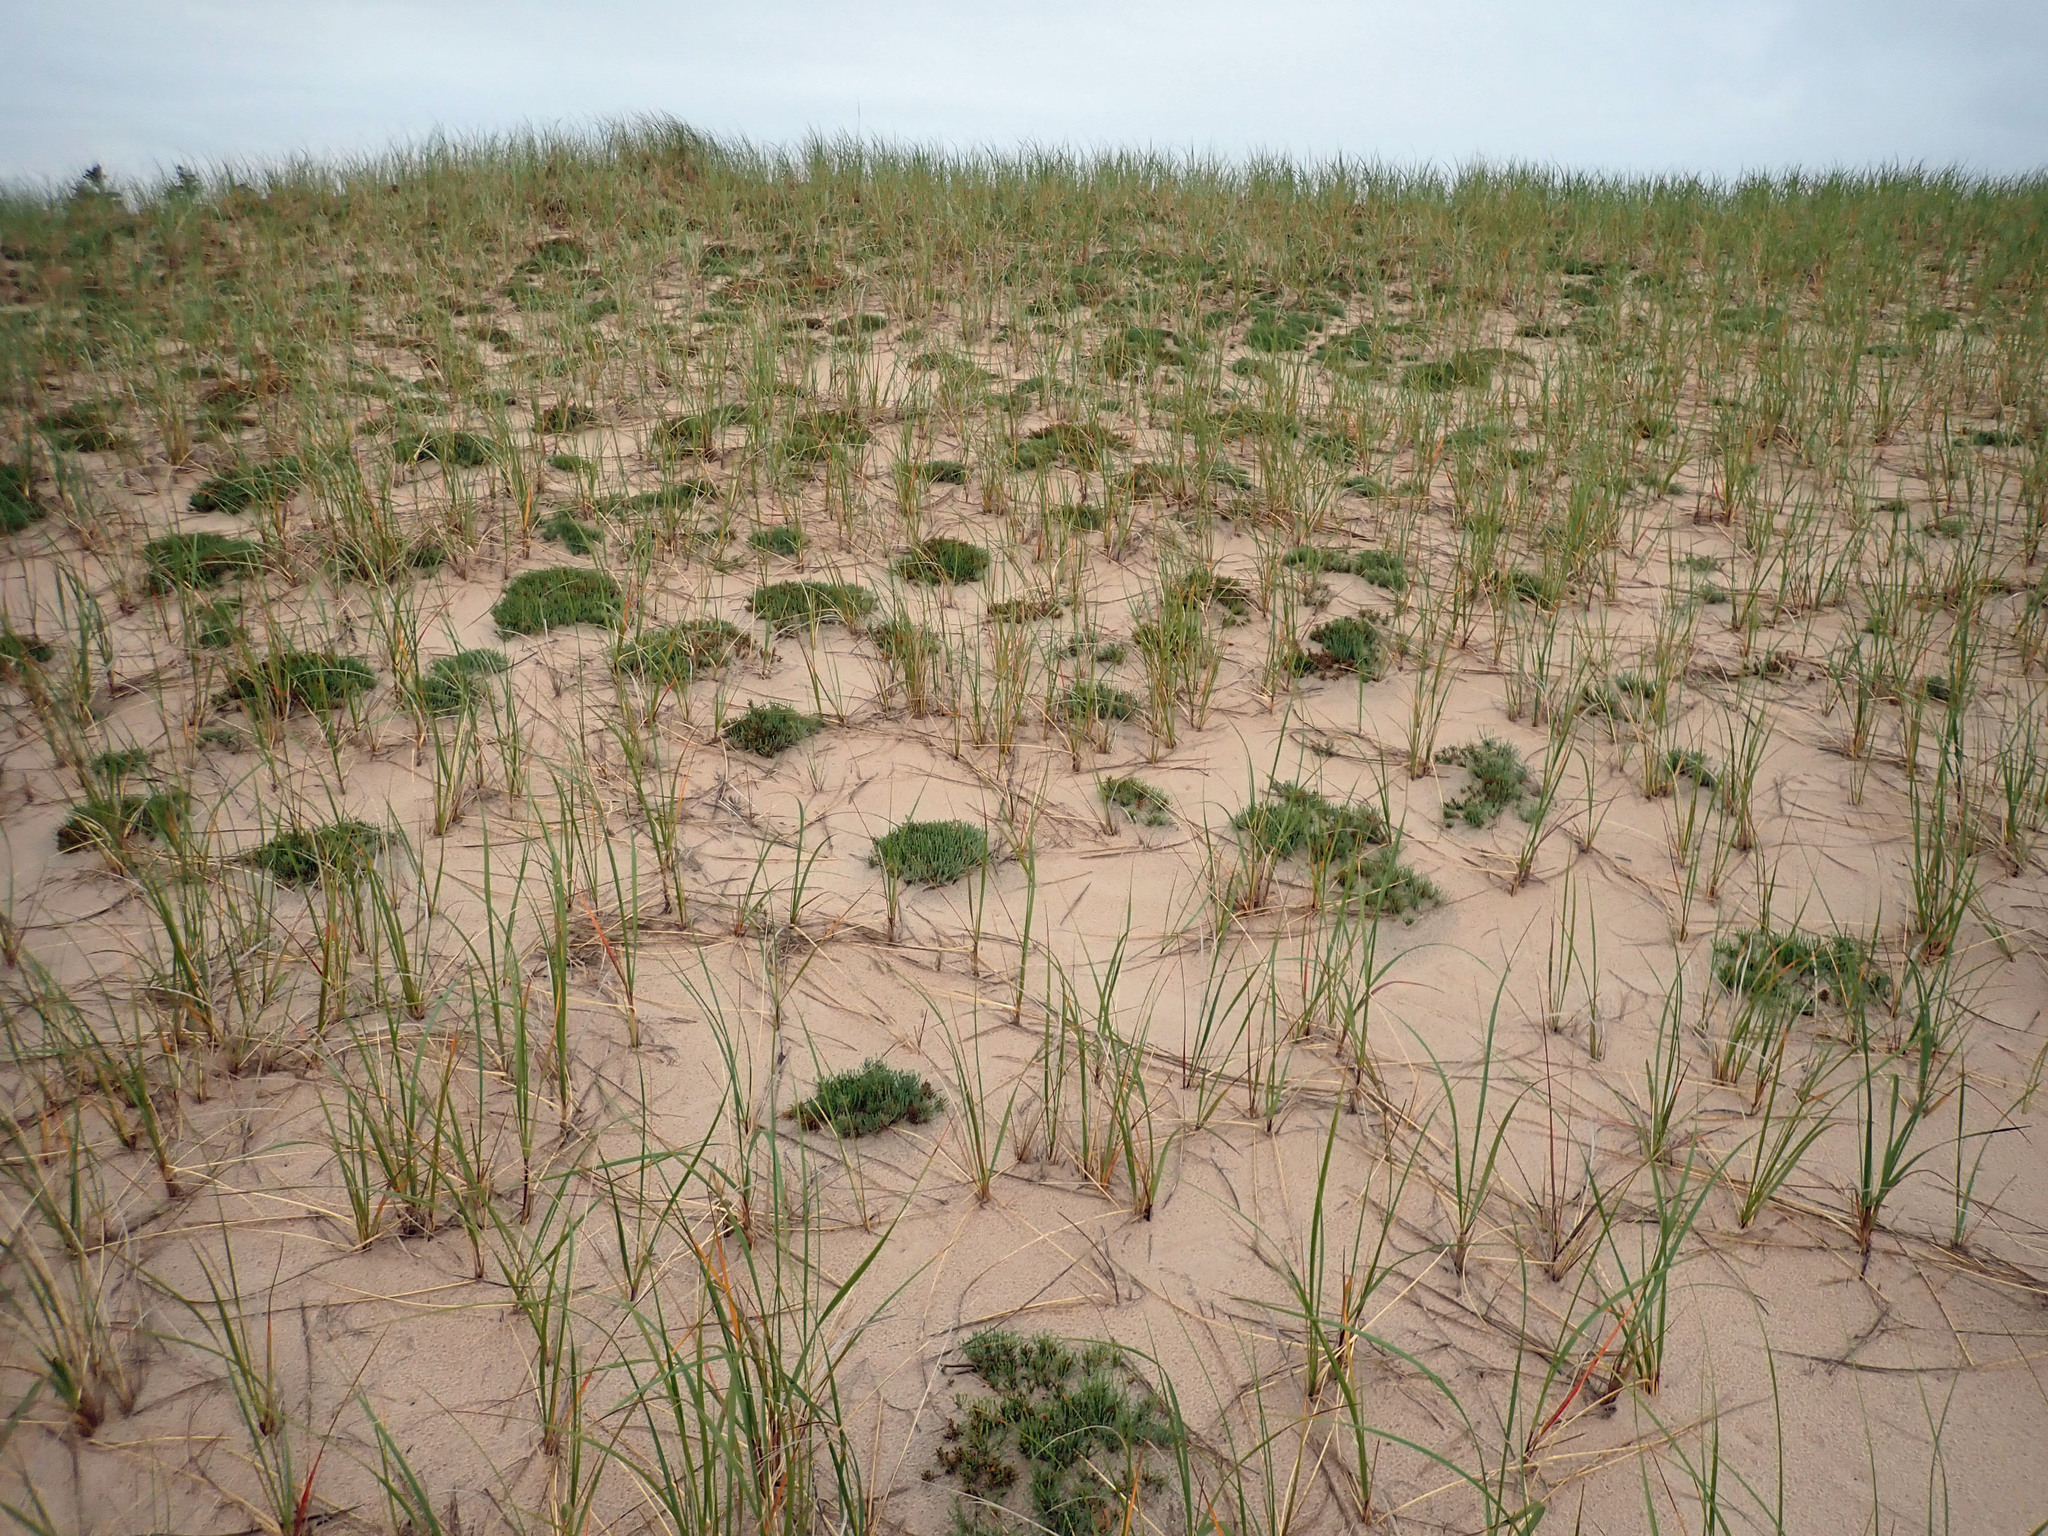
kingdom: Plantae
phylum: Tracheophyta
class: Magnoliopsida
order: Malvales
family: Cistaceae
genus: Hudsonia
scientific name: Hudsonia tomentosa
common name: Beach-heath
